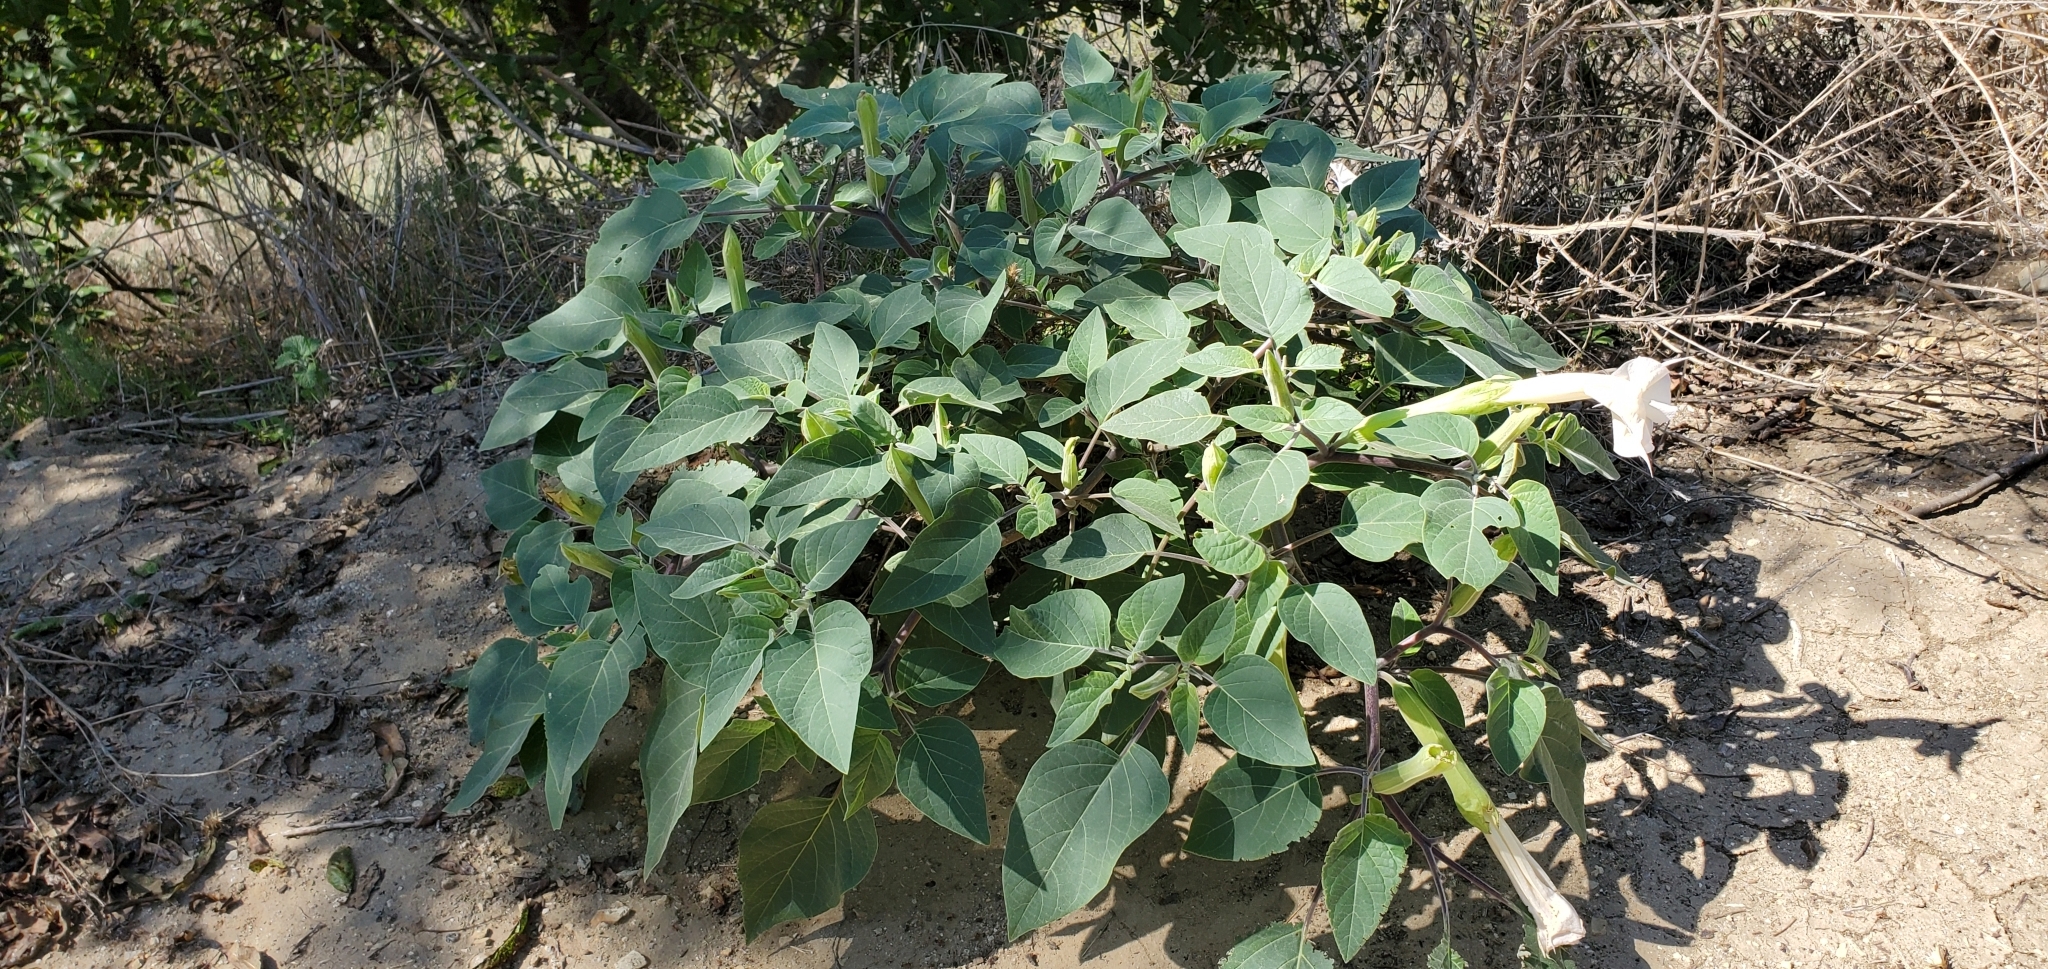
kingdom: Plantae
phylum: Tracheophyta
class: Magnoliopsida
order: Solanales
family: Solanaceae
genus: Datura
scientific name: Datura wrightii
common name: Sacred thorn-apple
